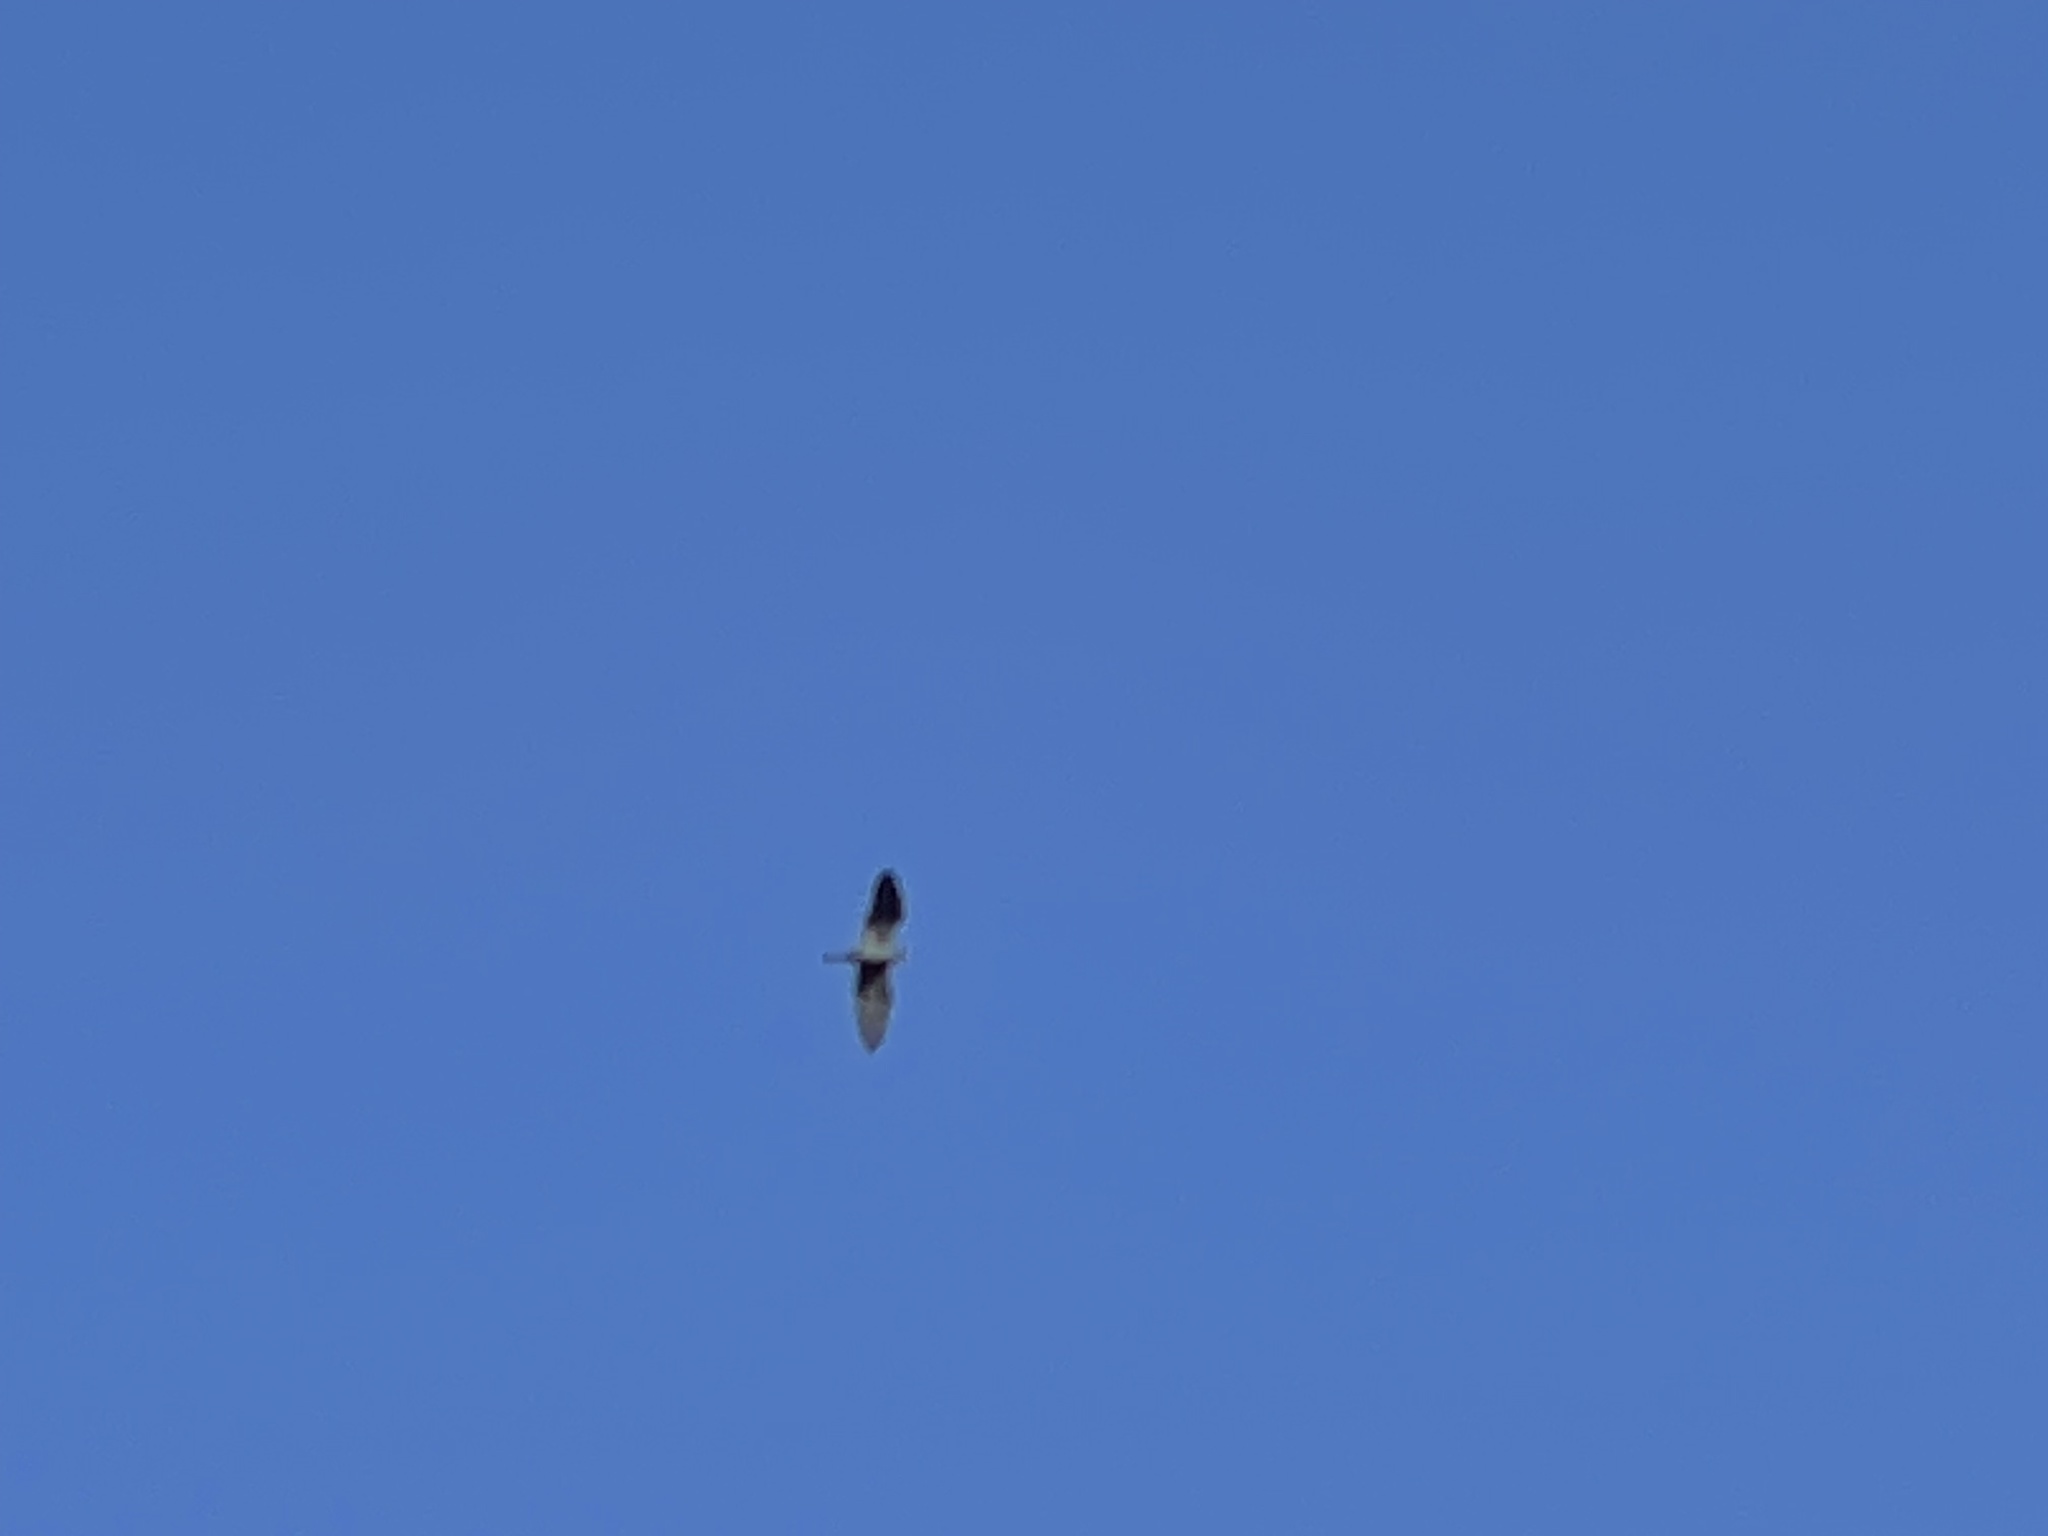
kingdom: Animalia
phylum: Chordata
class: Aves
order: Pelecaniformes
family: Ardeidae
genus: Egretta
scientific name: Egretta caerulea
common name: Little blue heron
